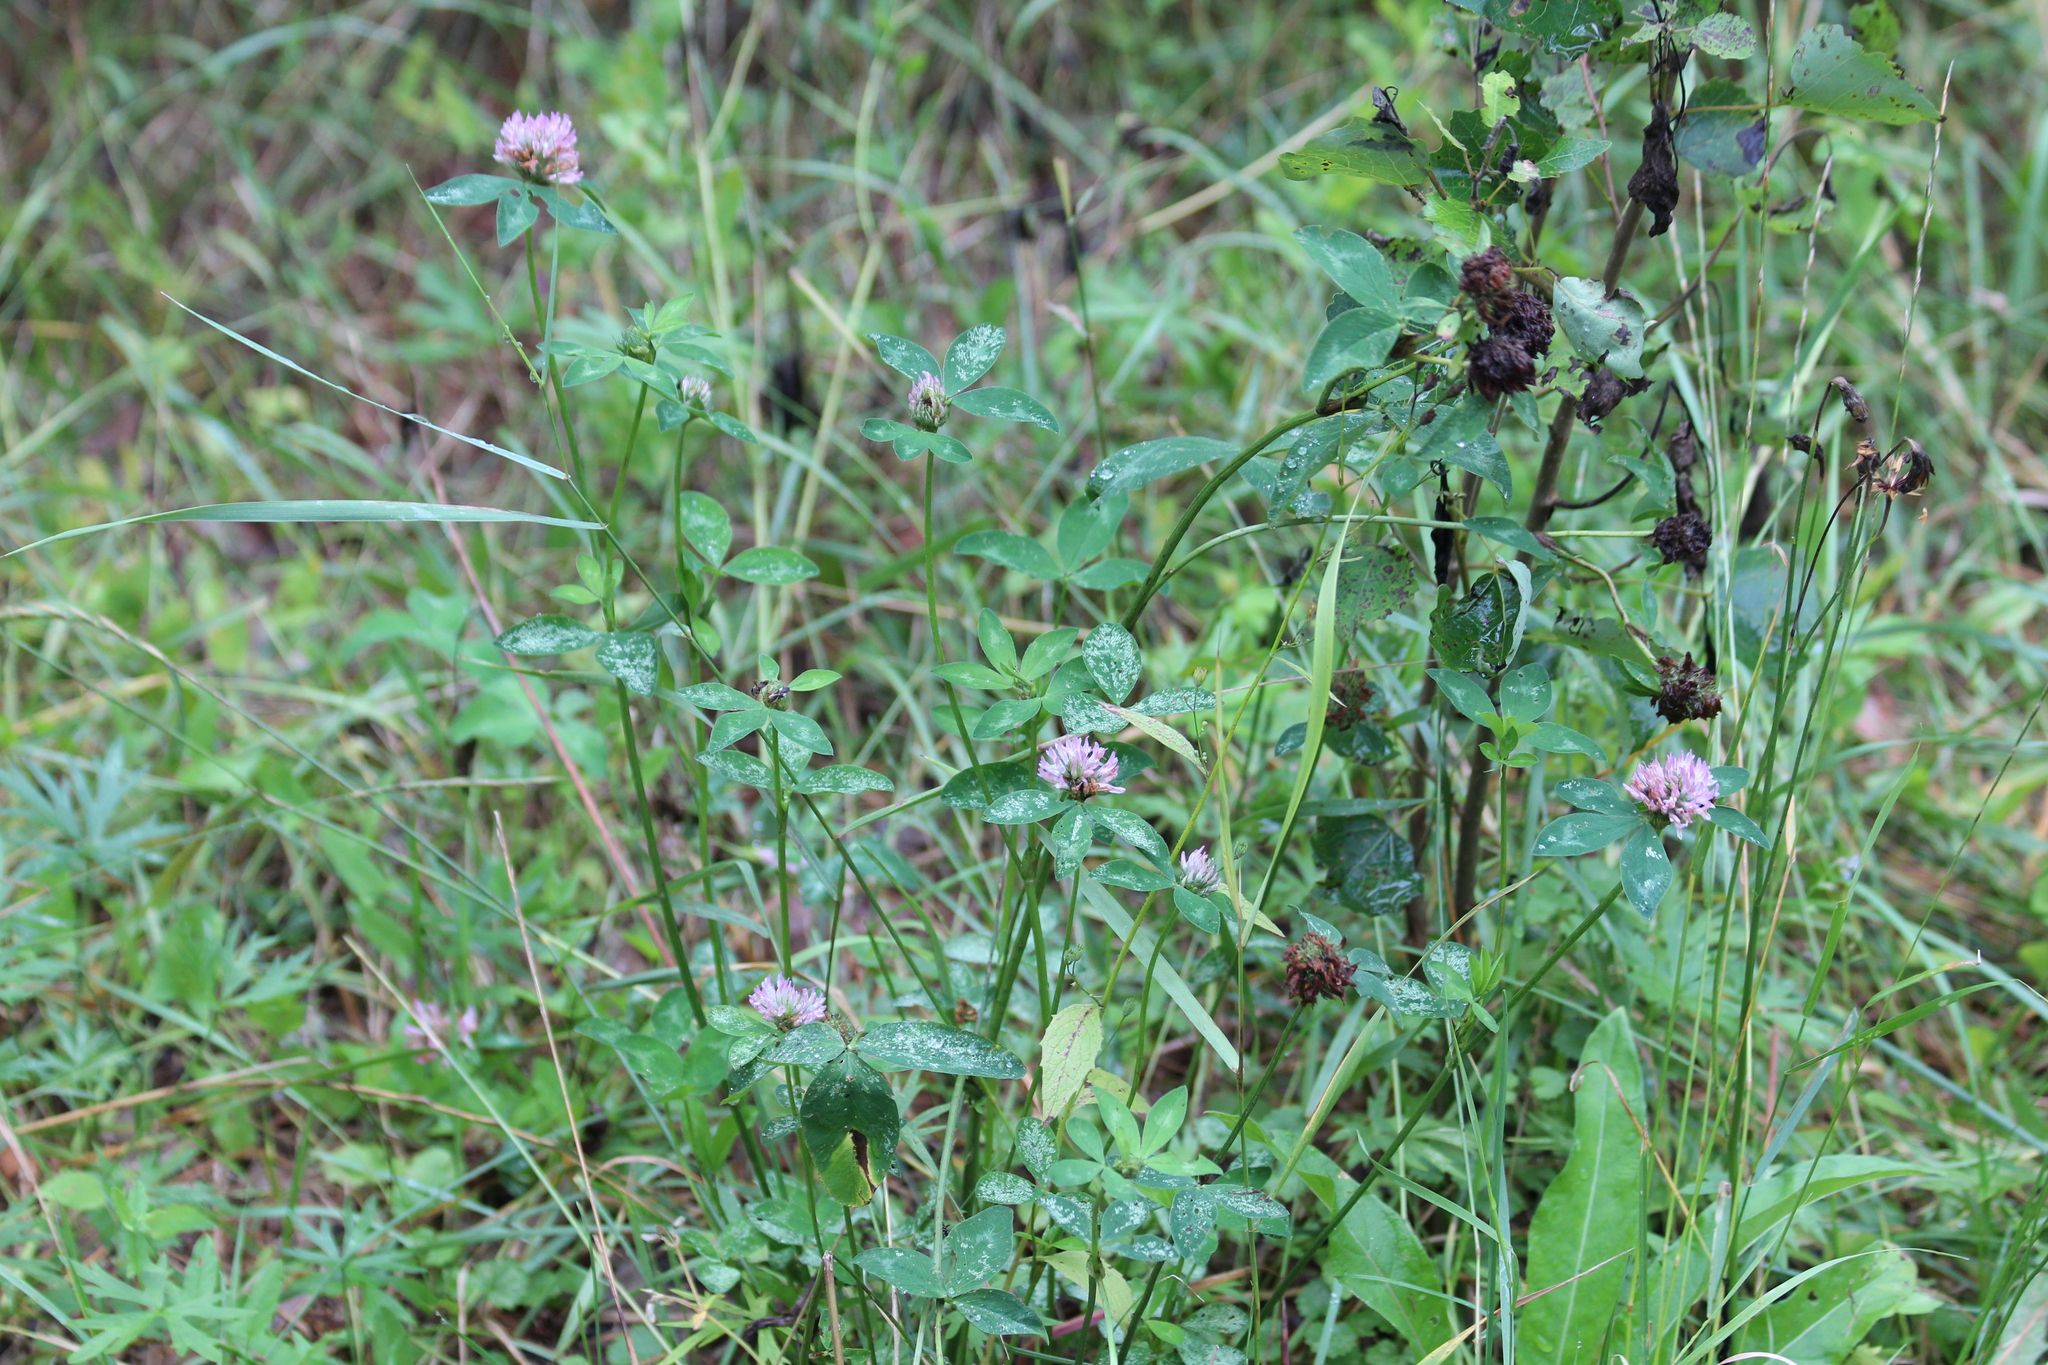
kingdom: Plantae
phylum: Tracheophyta
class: Magnoliopsida
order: Fabales
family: Fabaceae
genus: Trifolium
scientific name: Trifolium pratense
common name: Red clover
